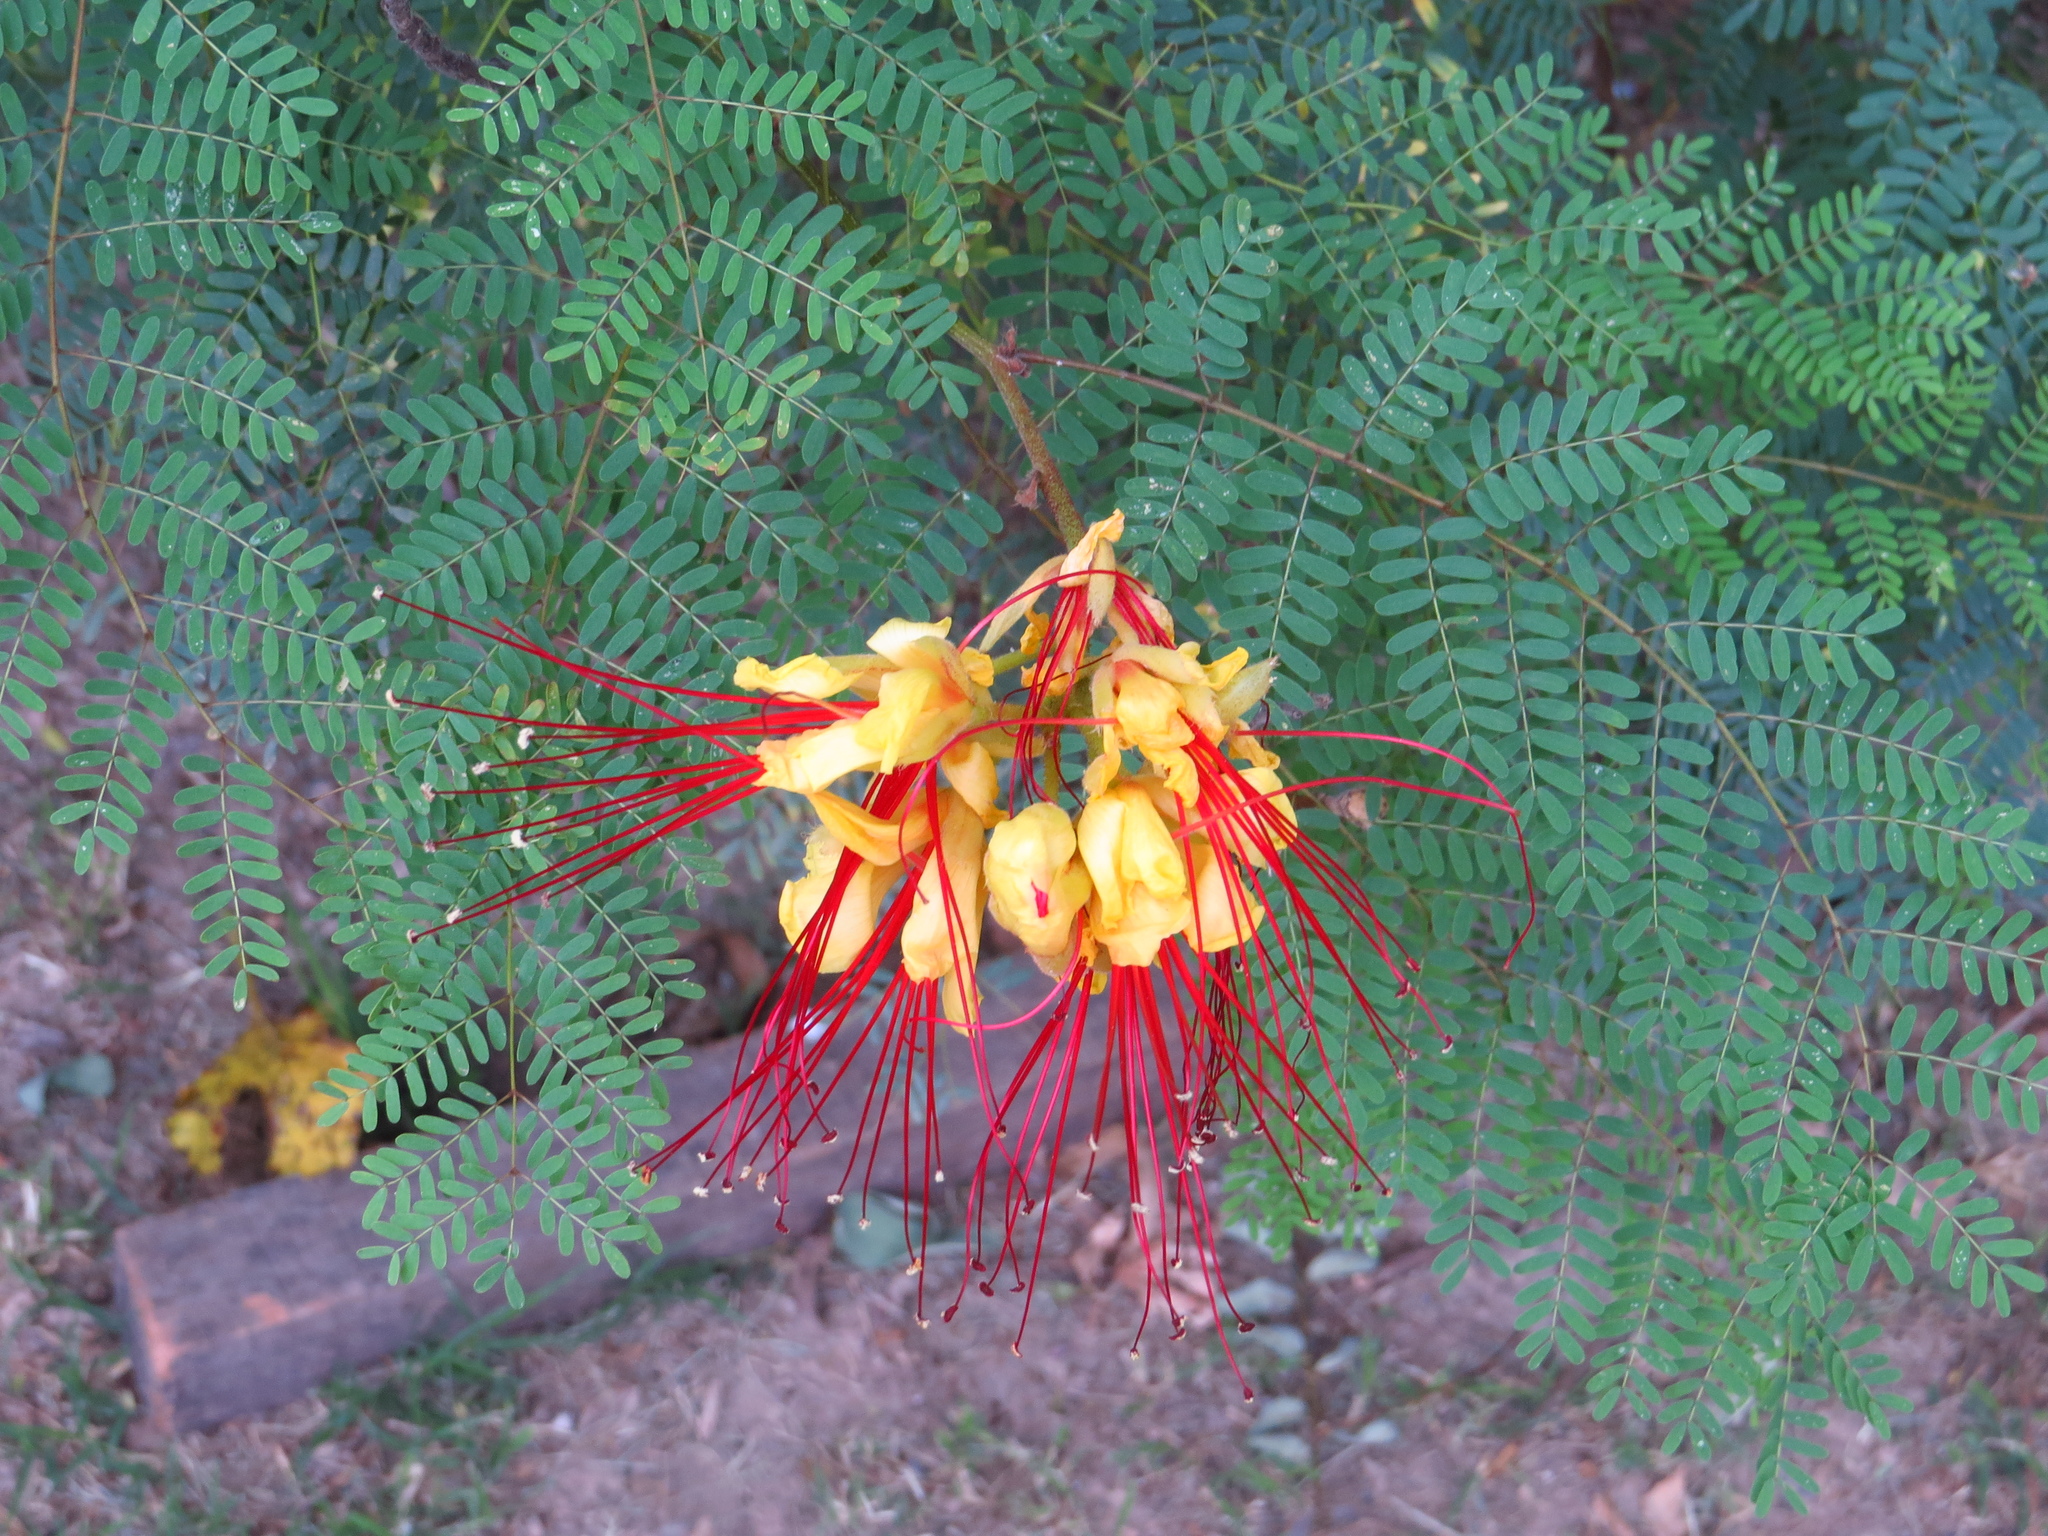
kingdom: Plantae
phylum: Tracheophyta
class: Magnoliopsida
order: Fabales
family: Fabaceae
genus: Erythrostemon
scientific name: Erythrostemon gilliesii
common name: Bird-of-paradise shrub
